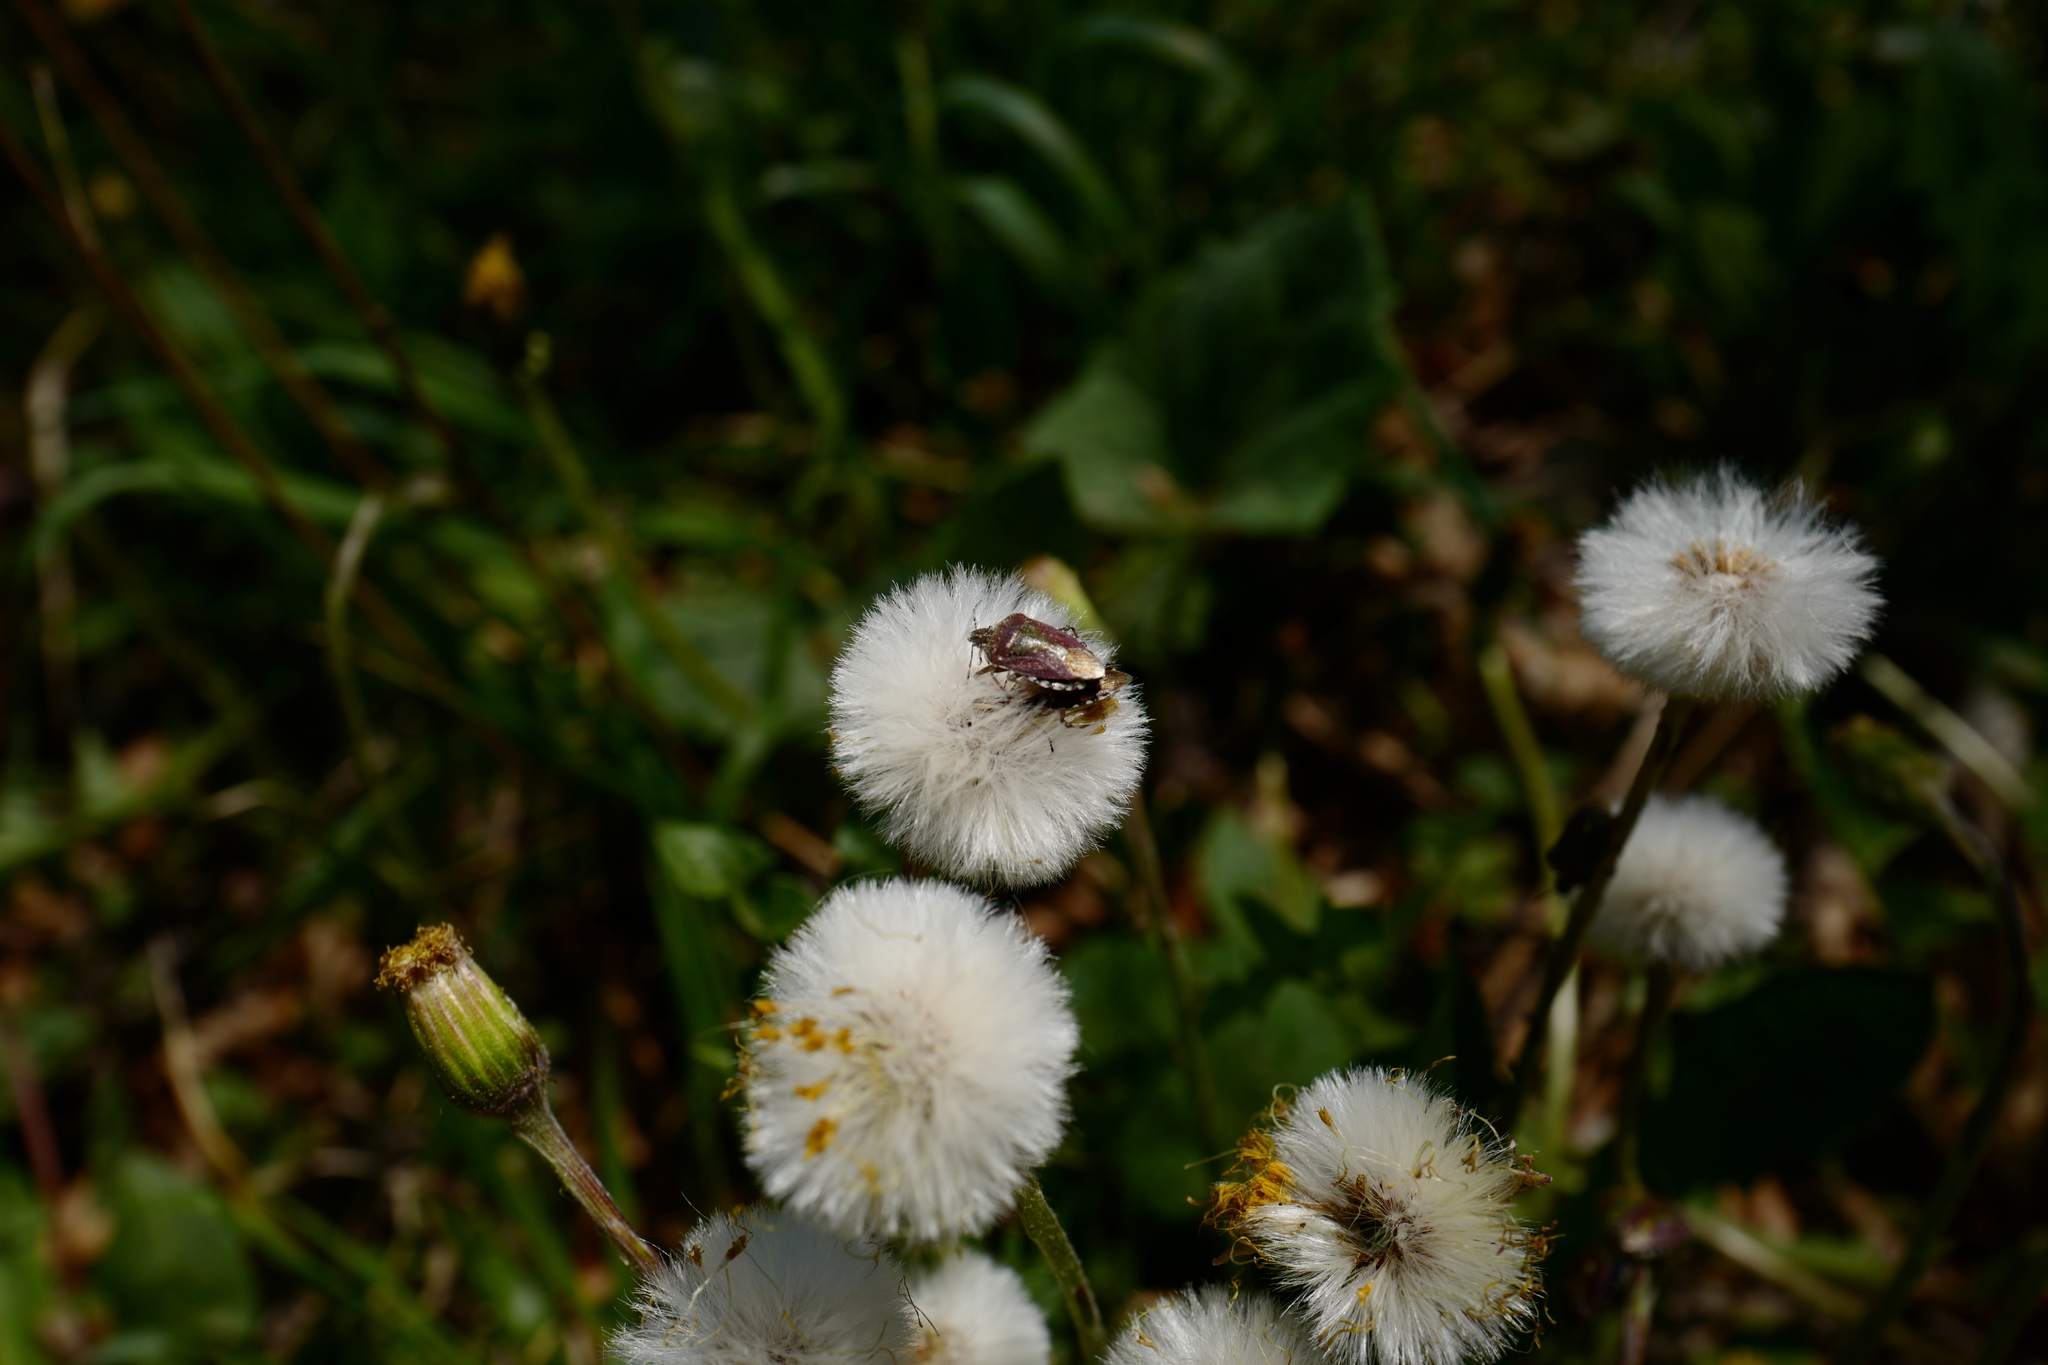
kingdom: Animalia
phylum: Arthropoda
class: Insecta
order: Hemiptera
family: Pentatomidae
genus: Dolycoris
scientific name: Dolycoris baccarum
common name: Sloe bug
